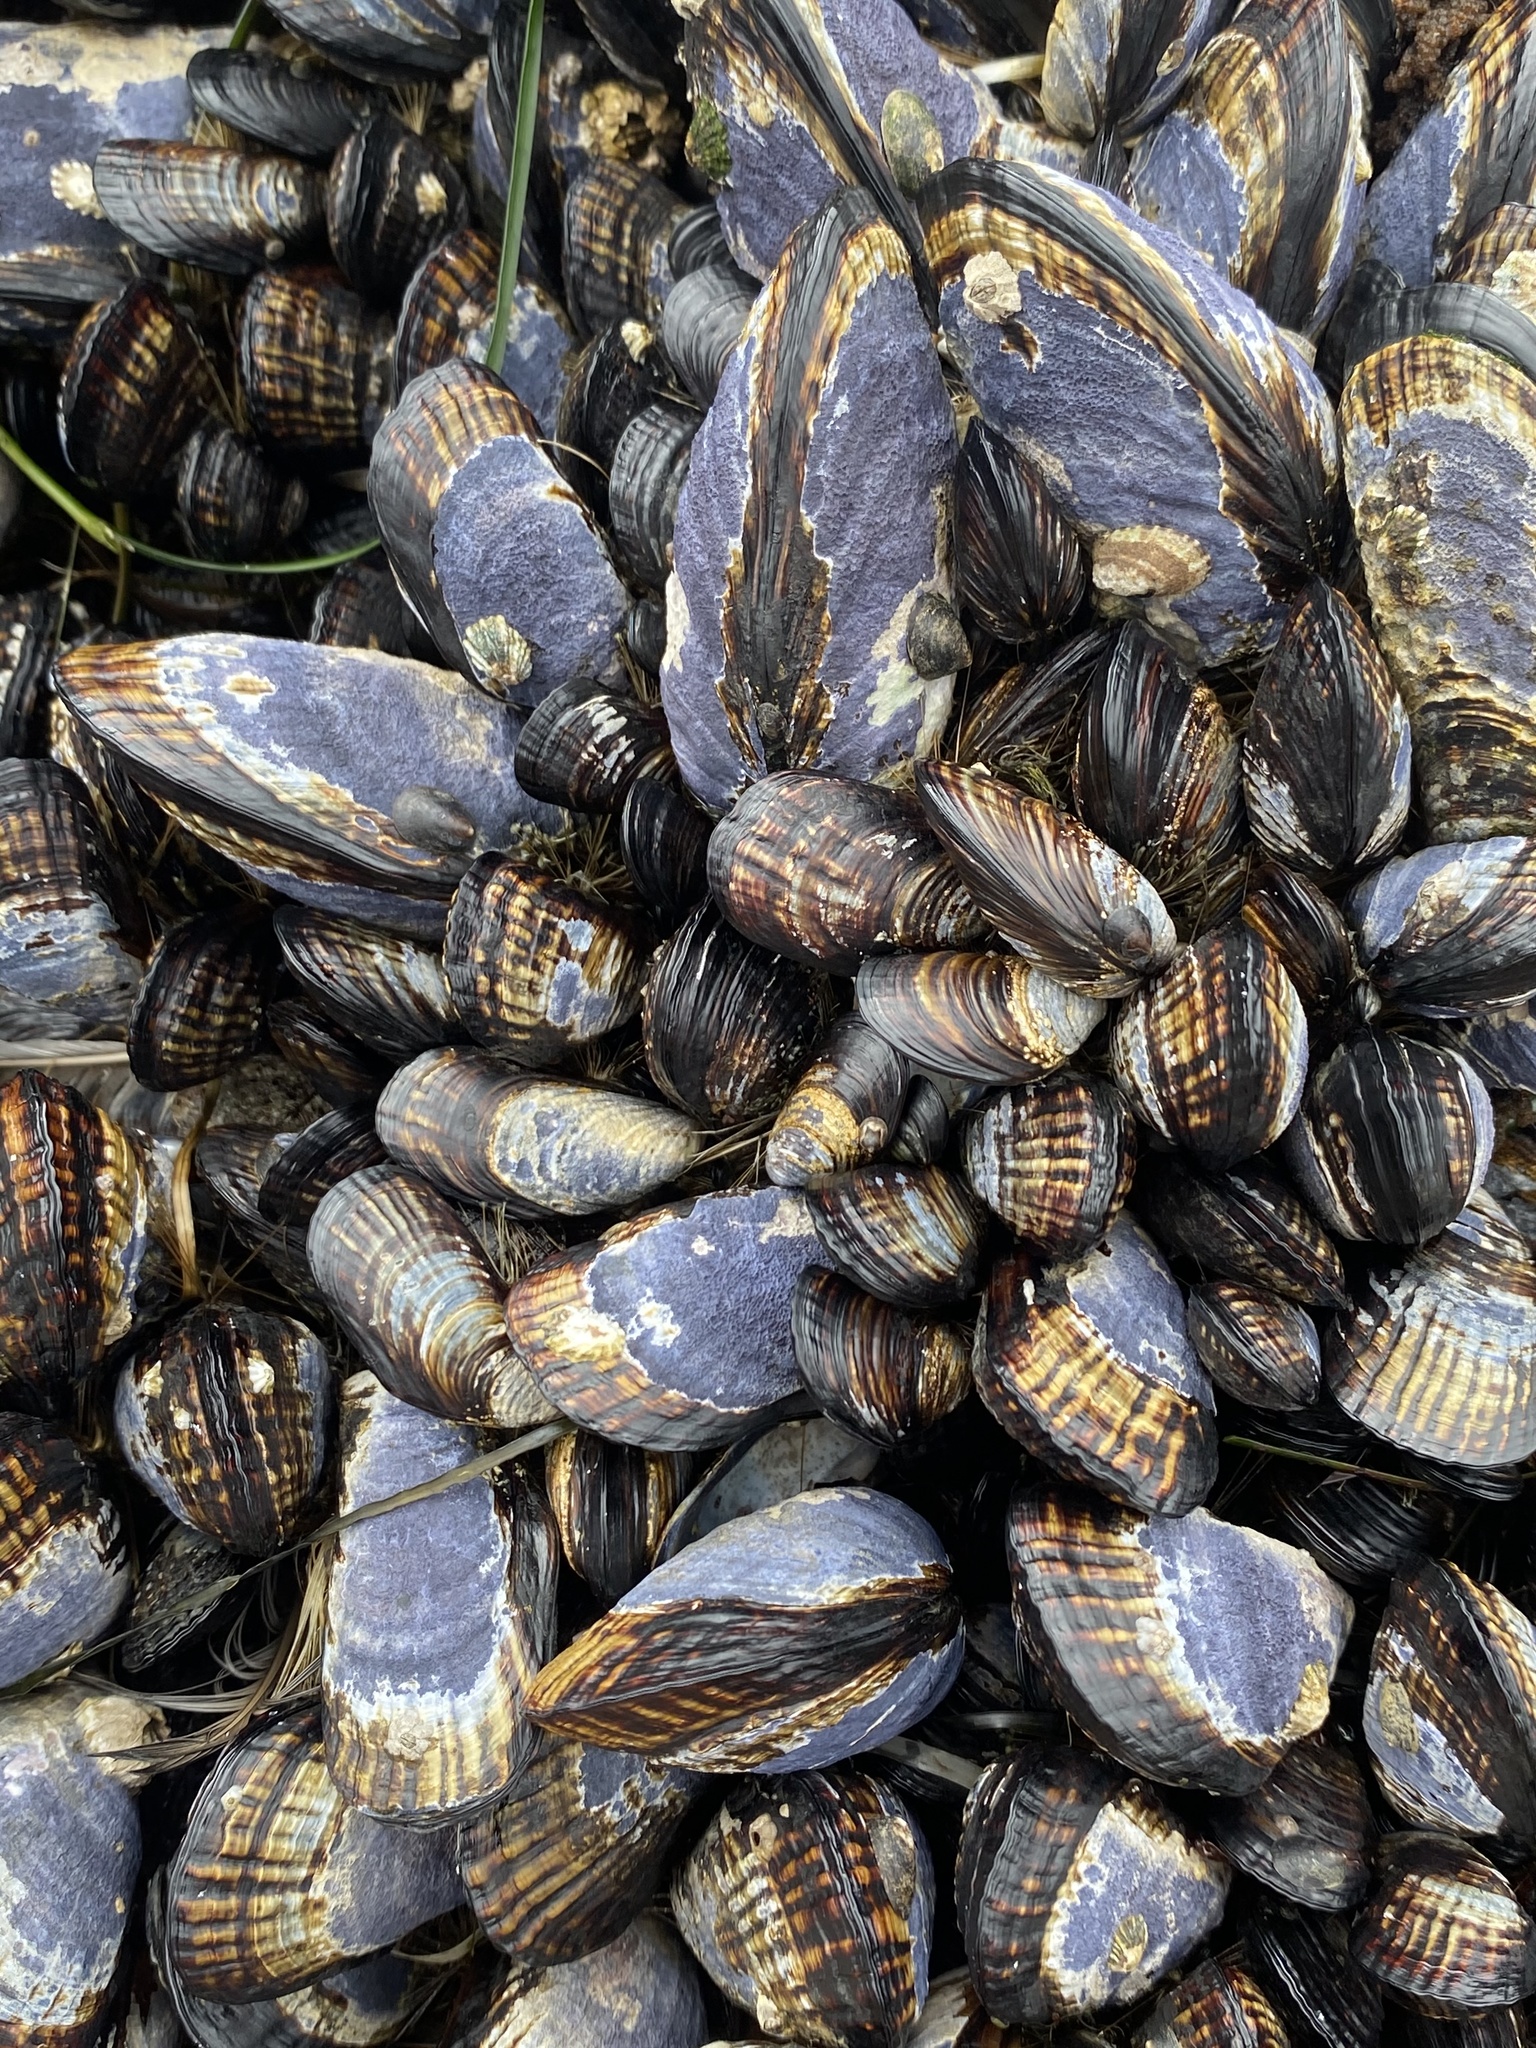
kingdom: Animalia
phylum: Mollusca
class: Bivalvia
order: Mytilida
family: Mytilidae
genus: Mytilus
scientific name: Mytilus californianus
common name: California mussel
